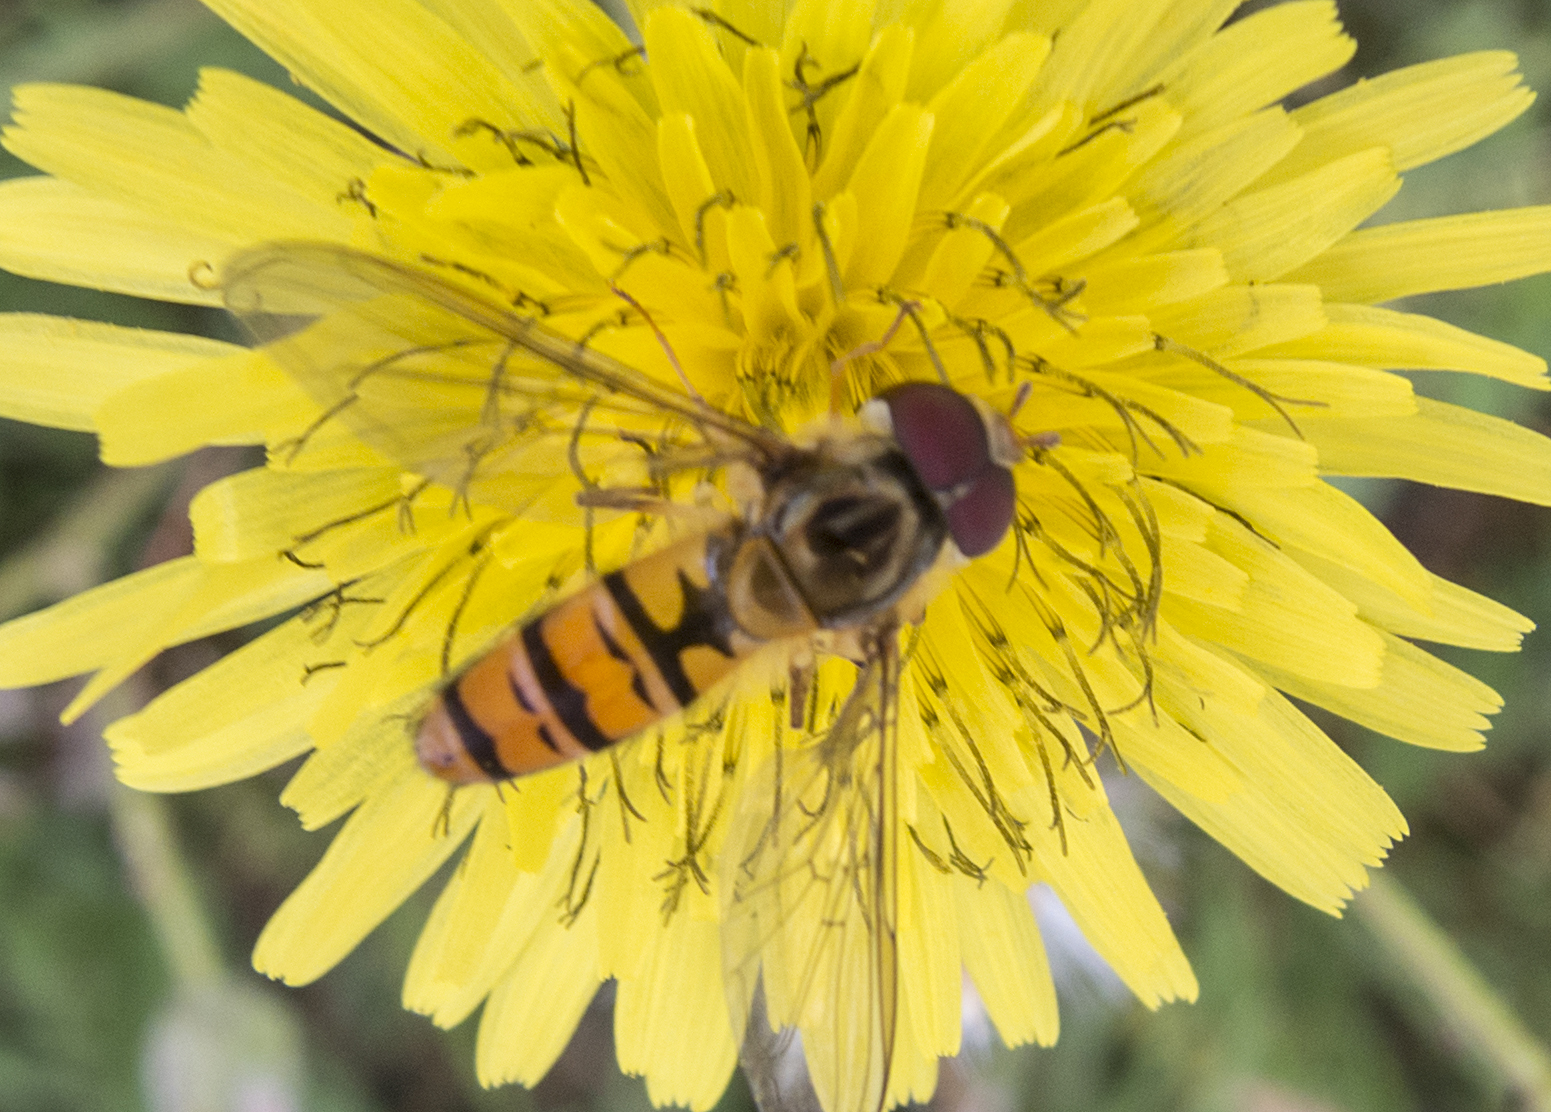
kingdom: Animalia
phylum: Arthropoda
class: Insecta
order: Diptera
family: Syrphidae
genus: Episyrphus
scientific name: Episyrphus balteatus
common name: Marmalade hoverfly
